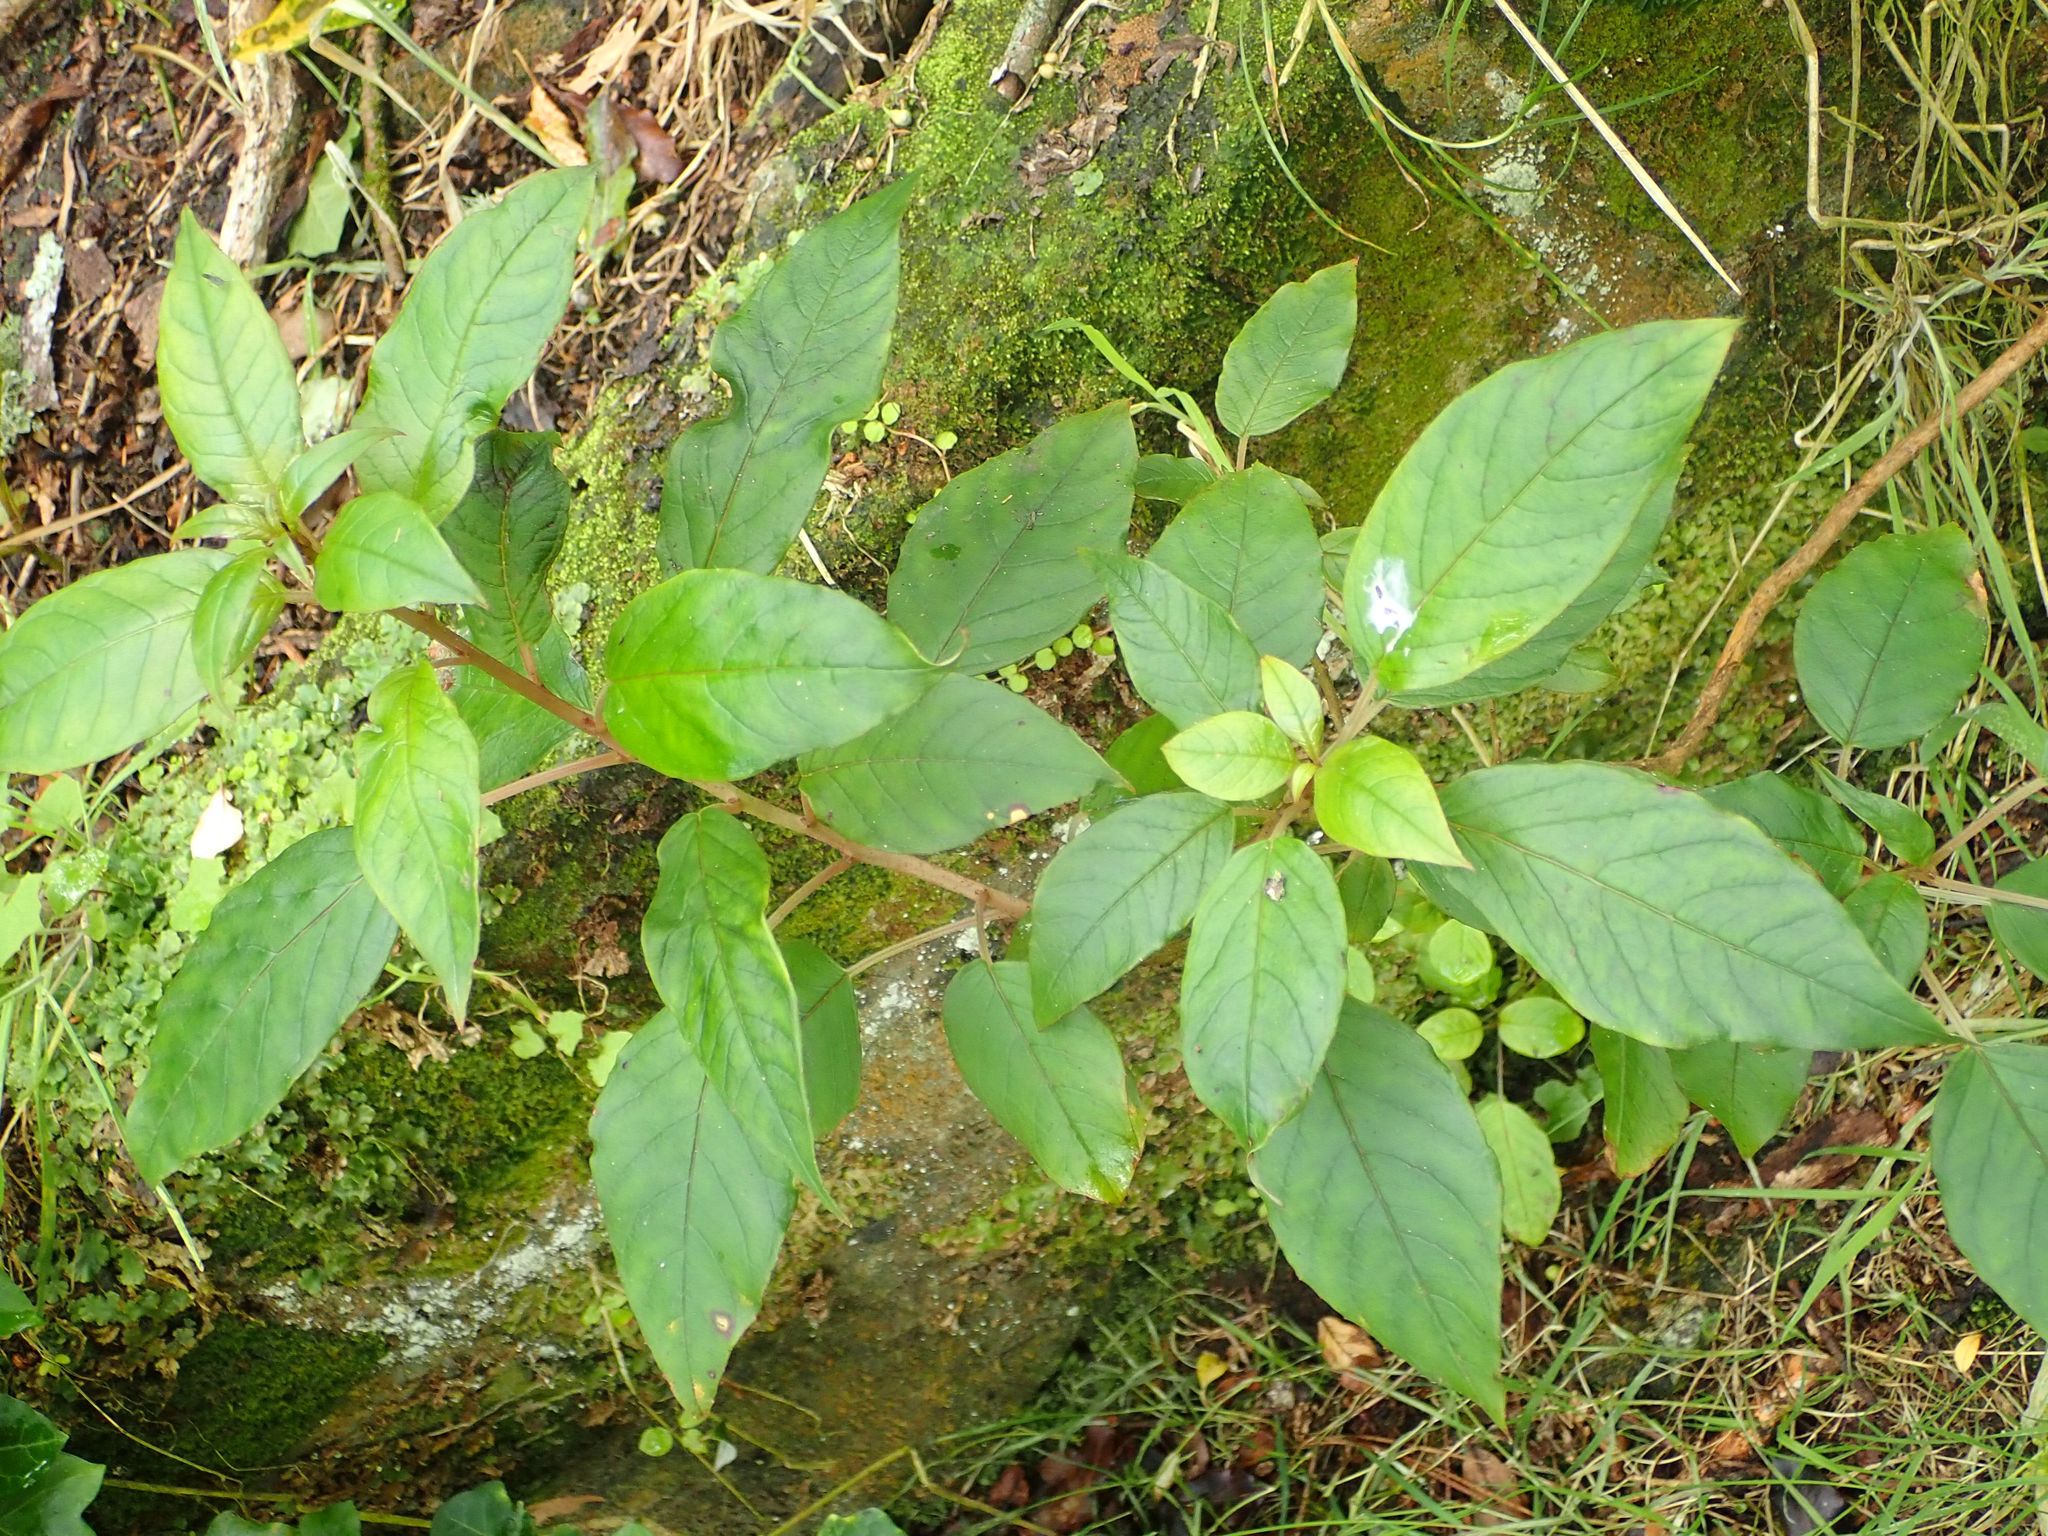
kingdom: Plantae
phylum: Tracheophyta
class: Magnoliopsida
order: Myrtales
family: Onagraceae
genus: Fuchsia
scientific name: Fuchsia excorticata
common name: Tree fuchsia
